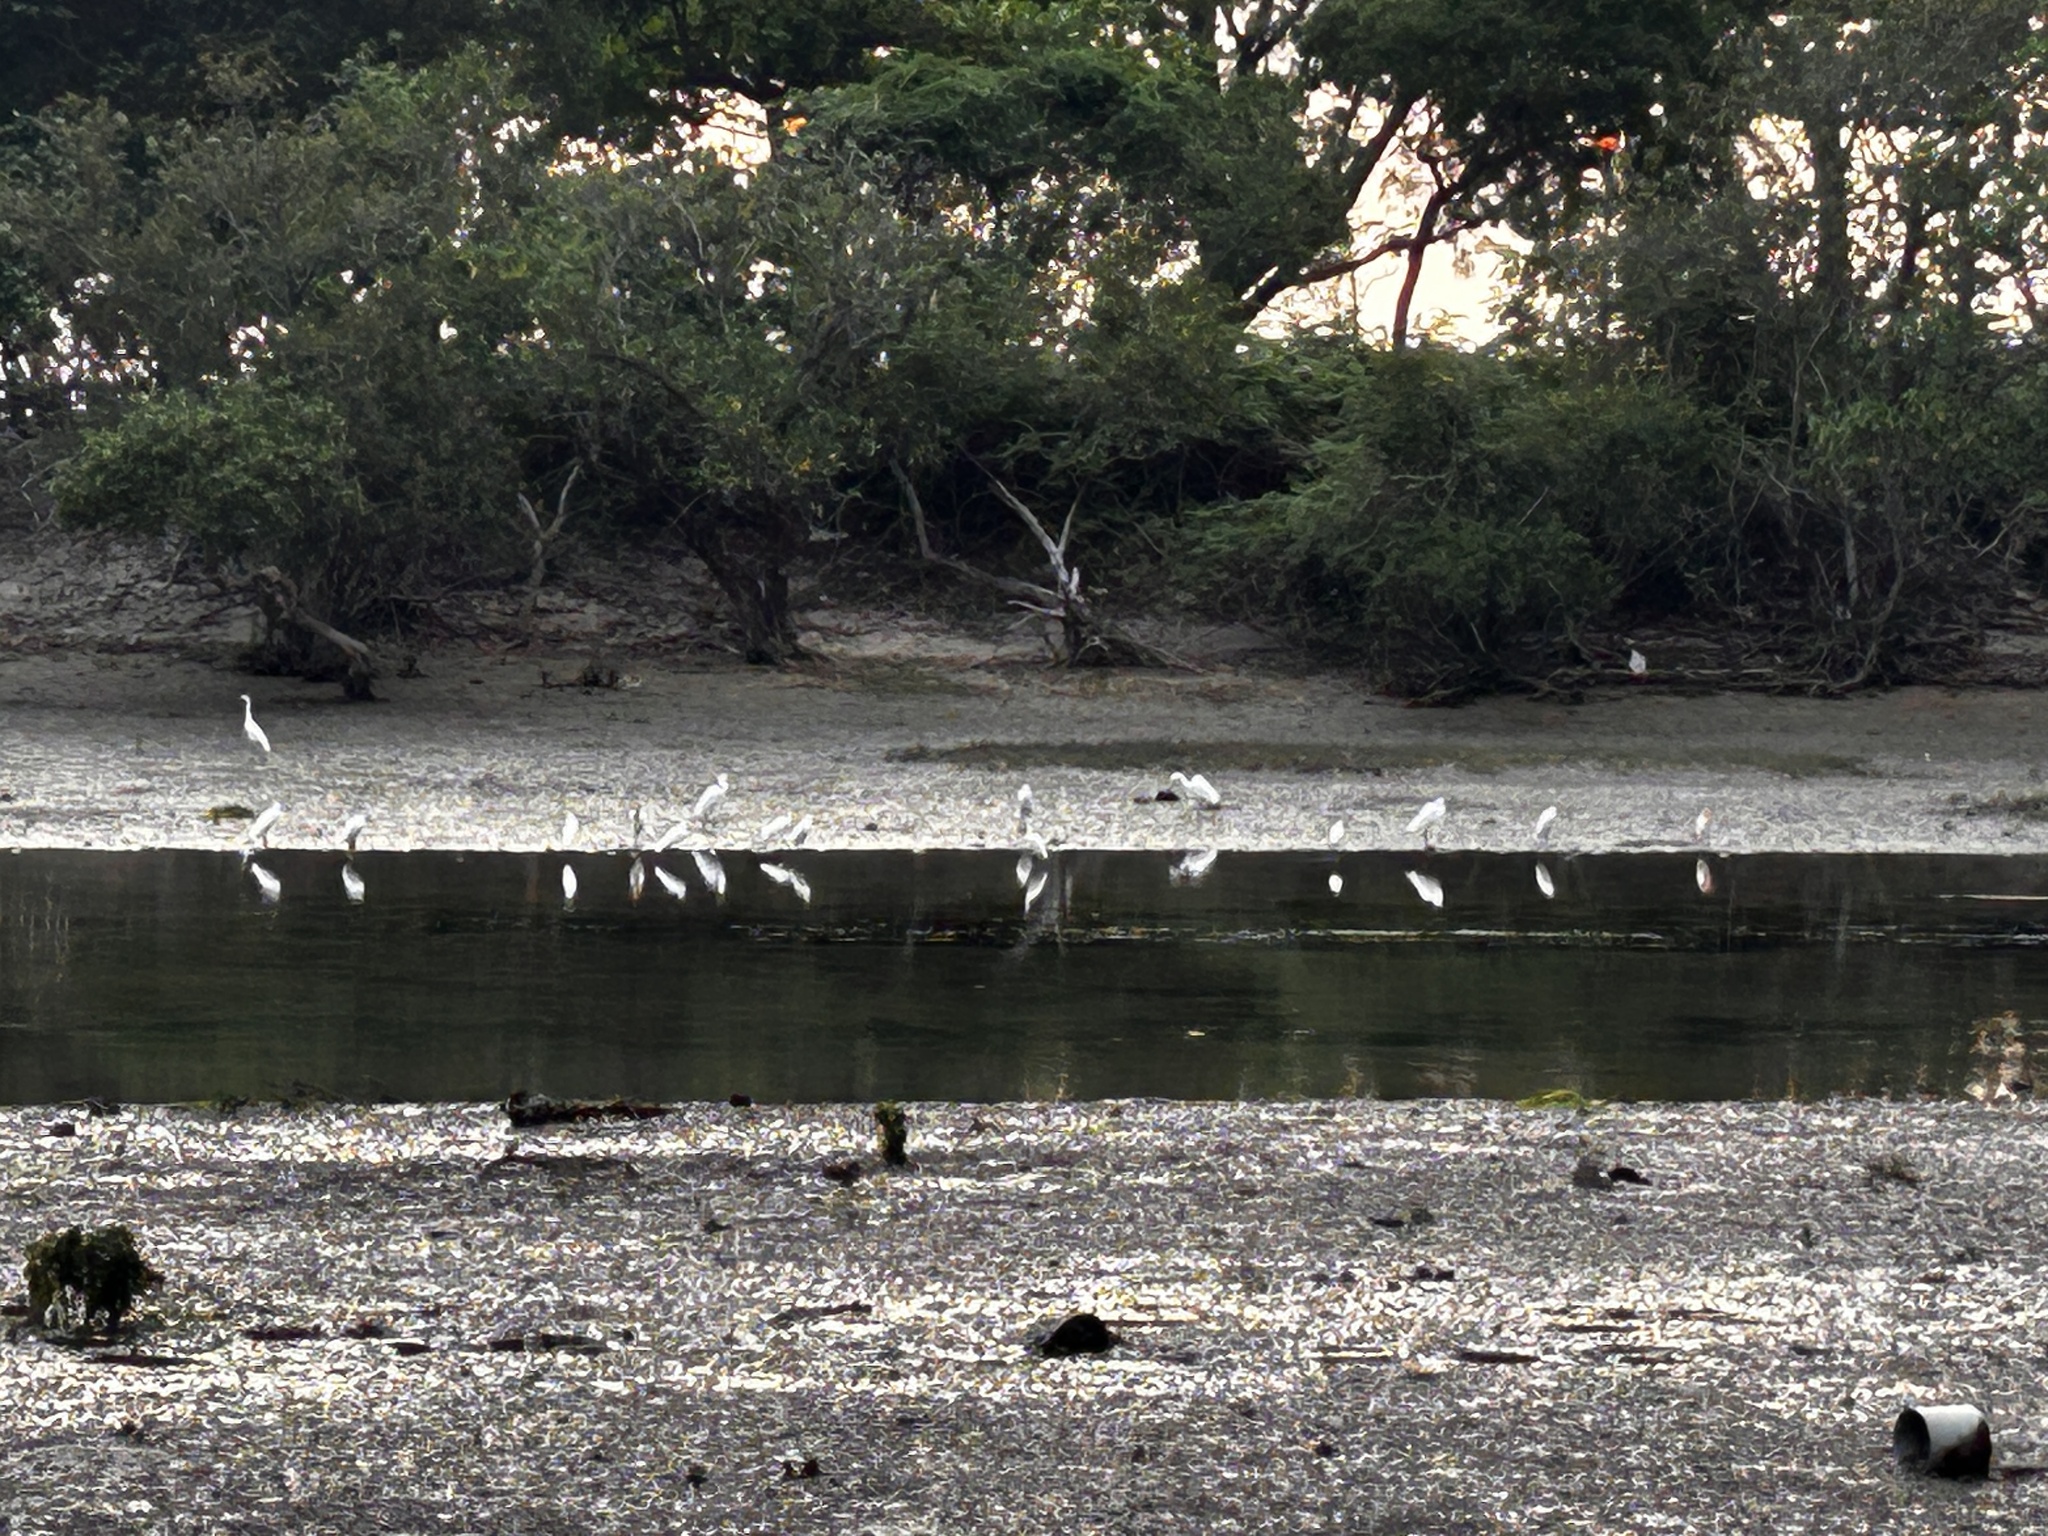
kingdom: Animalia
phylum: Chordata
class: Aves
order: Pelecaniformes
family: Ardeidae
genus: Egretta
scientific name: Egretta garzetta
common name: Little egret
